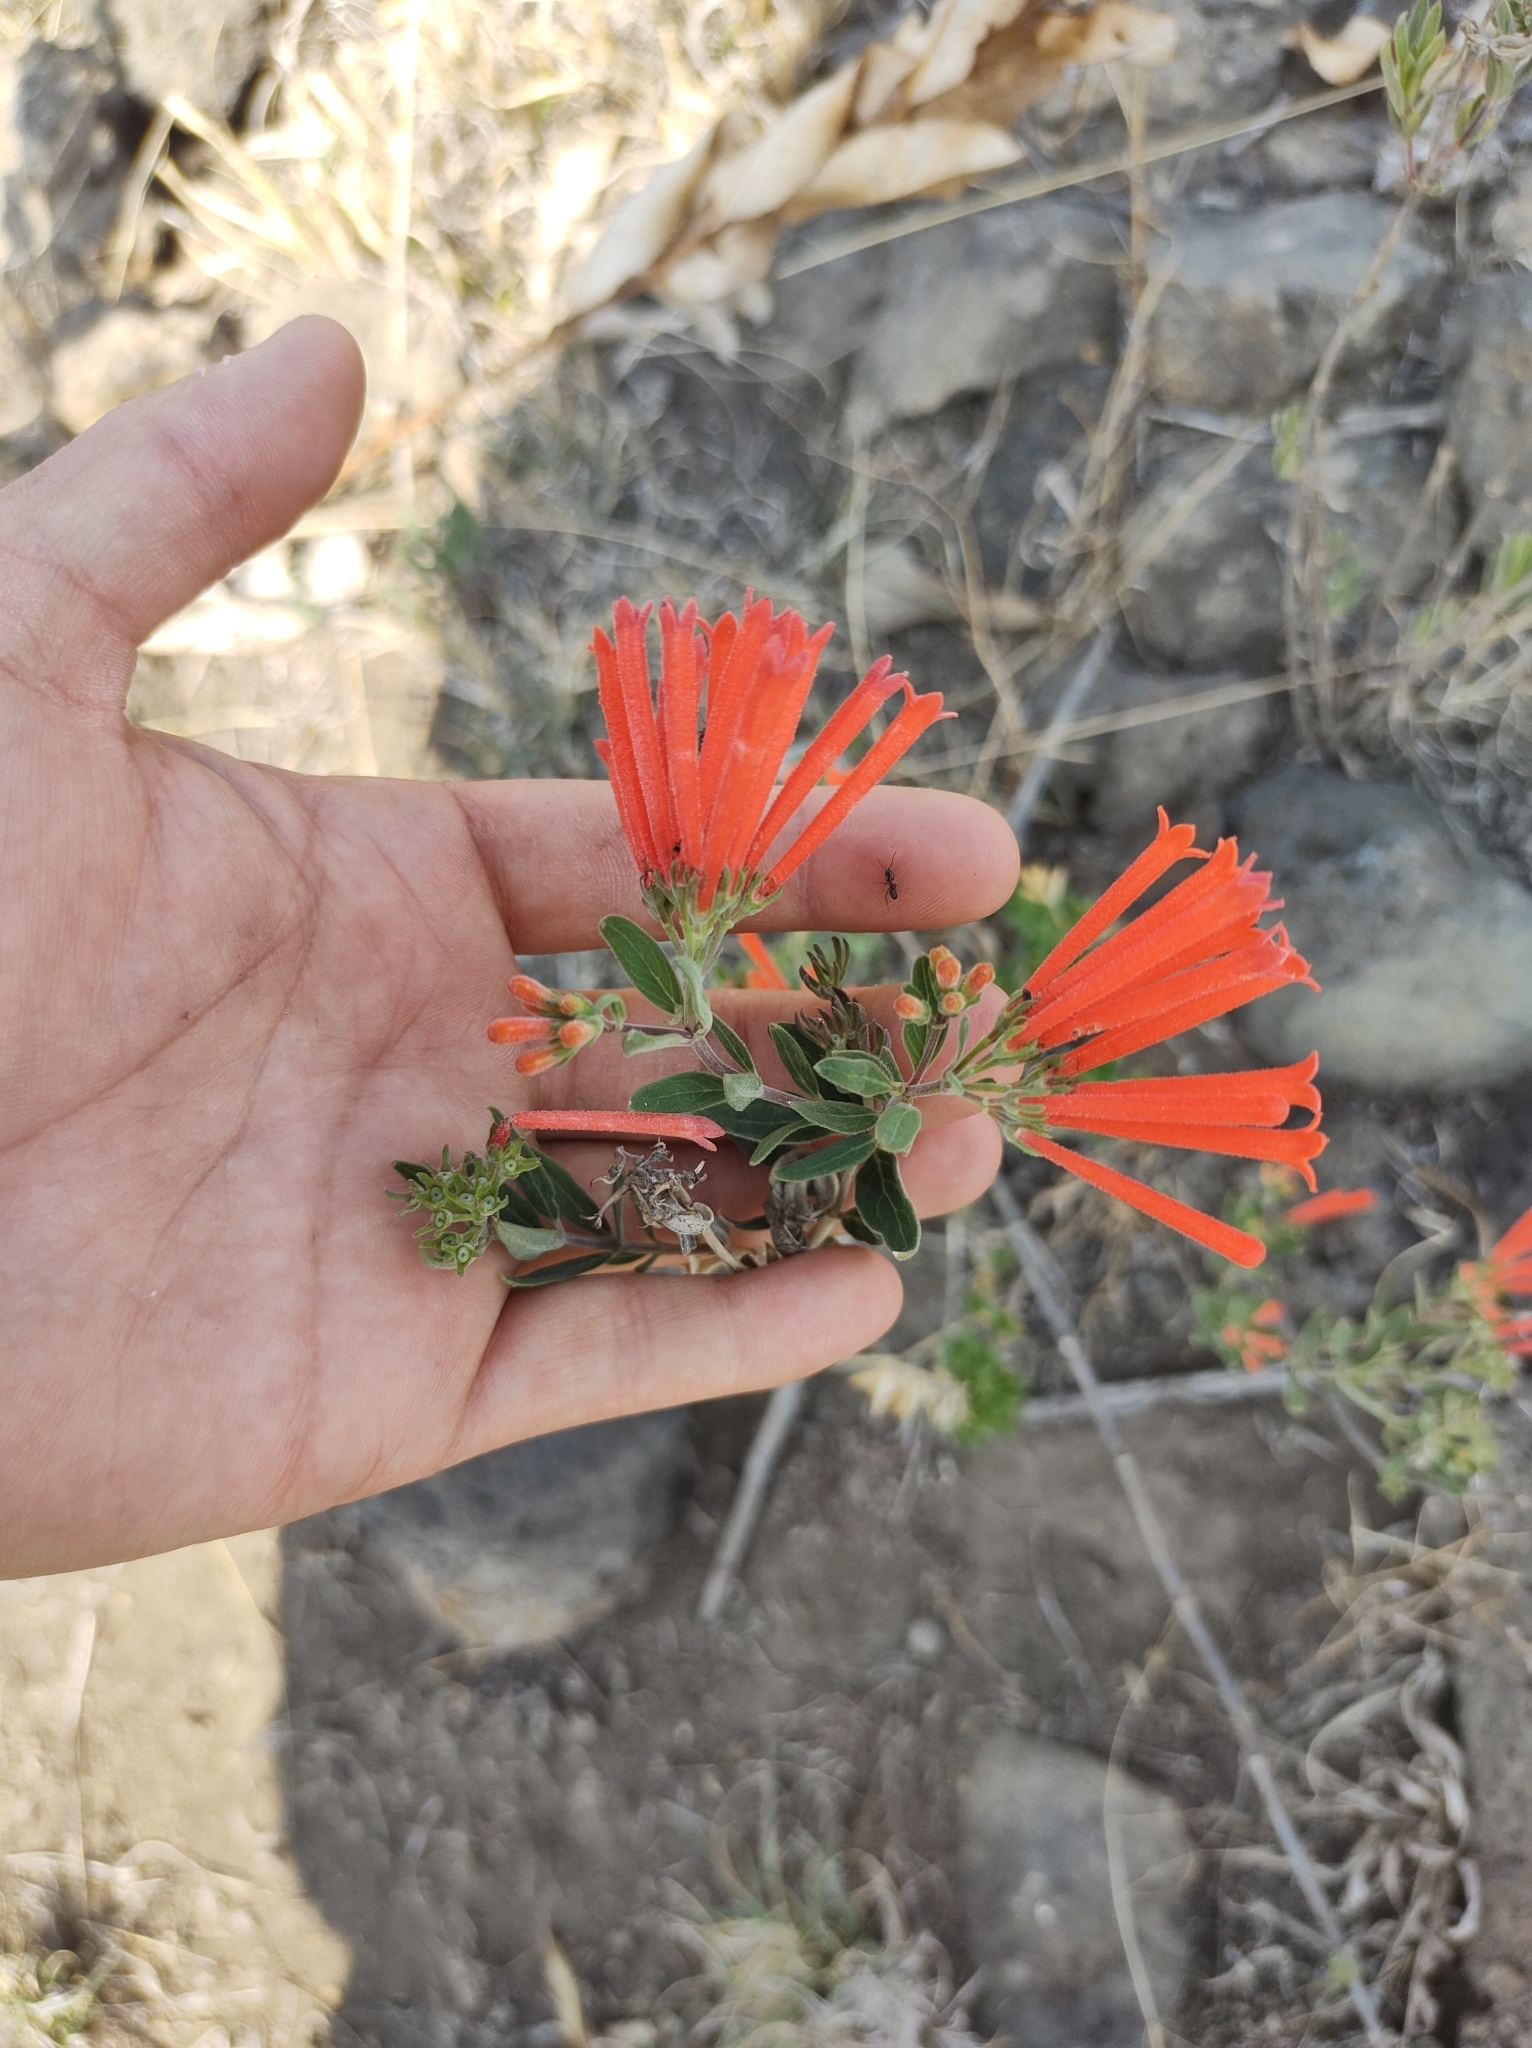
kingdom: Plantae
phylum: Tracheophyta
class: Magnoliopsida
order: Gentianales
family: Rubiaceae
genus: Bouvardia
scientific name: Bouvardia ternifolia
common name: Scarlet bouvardia
